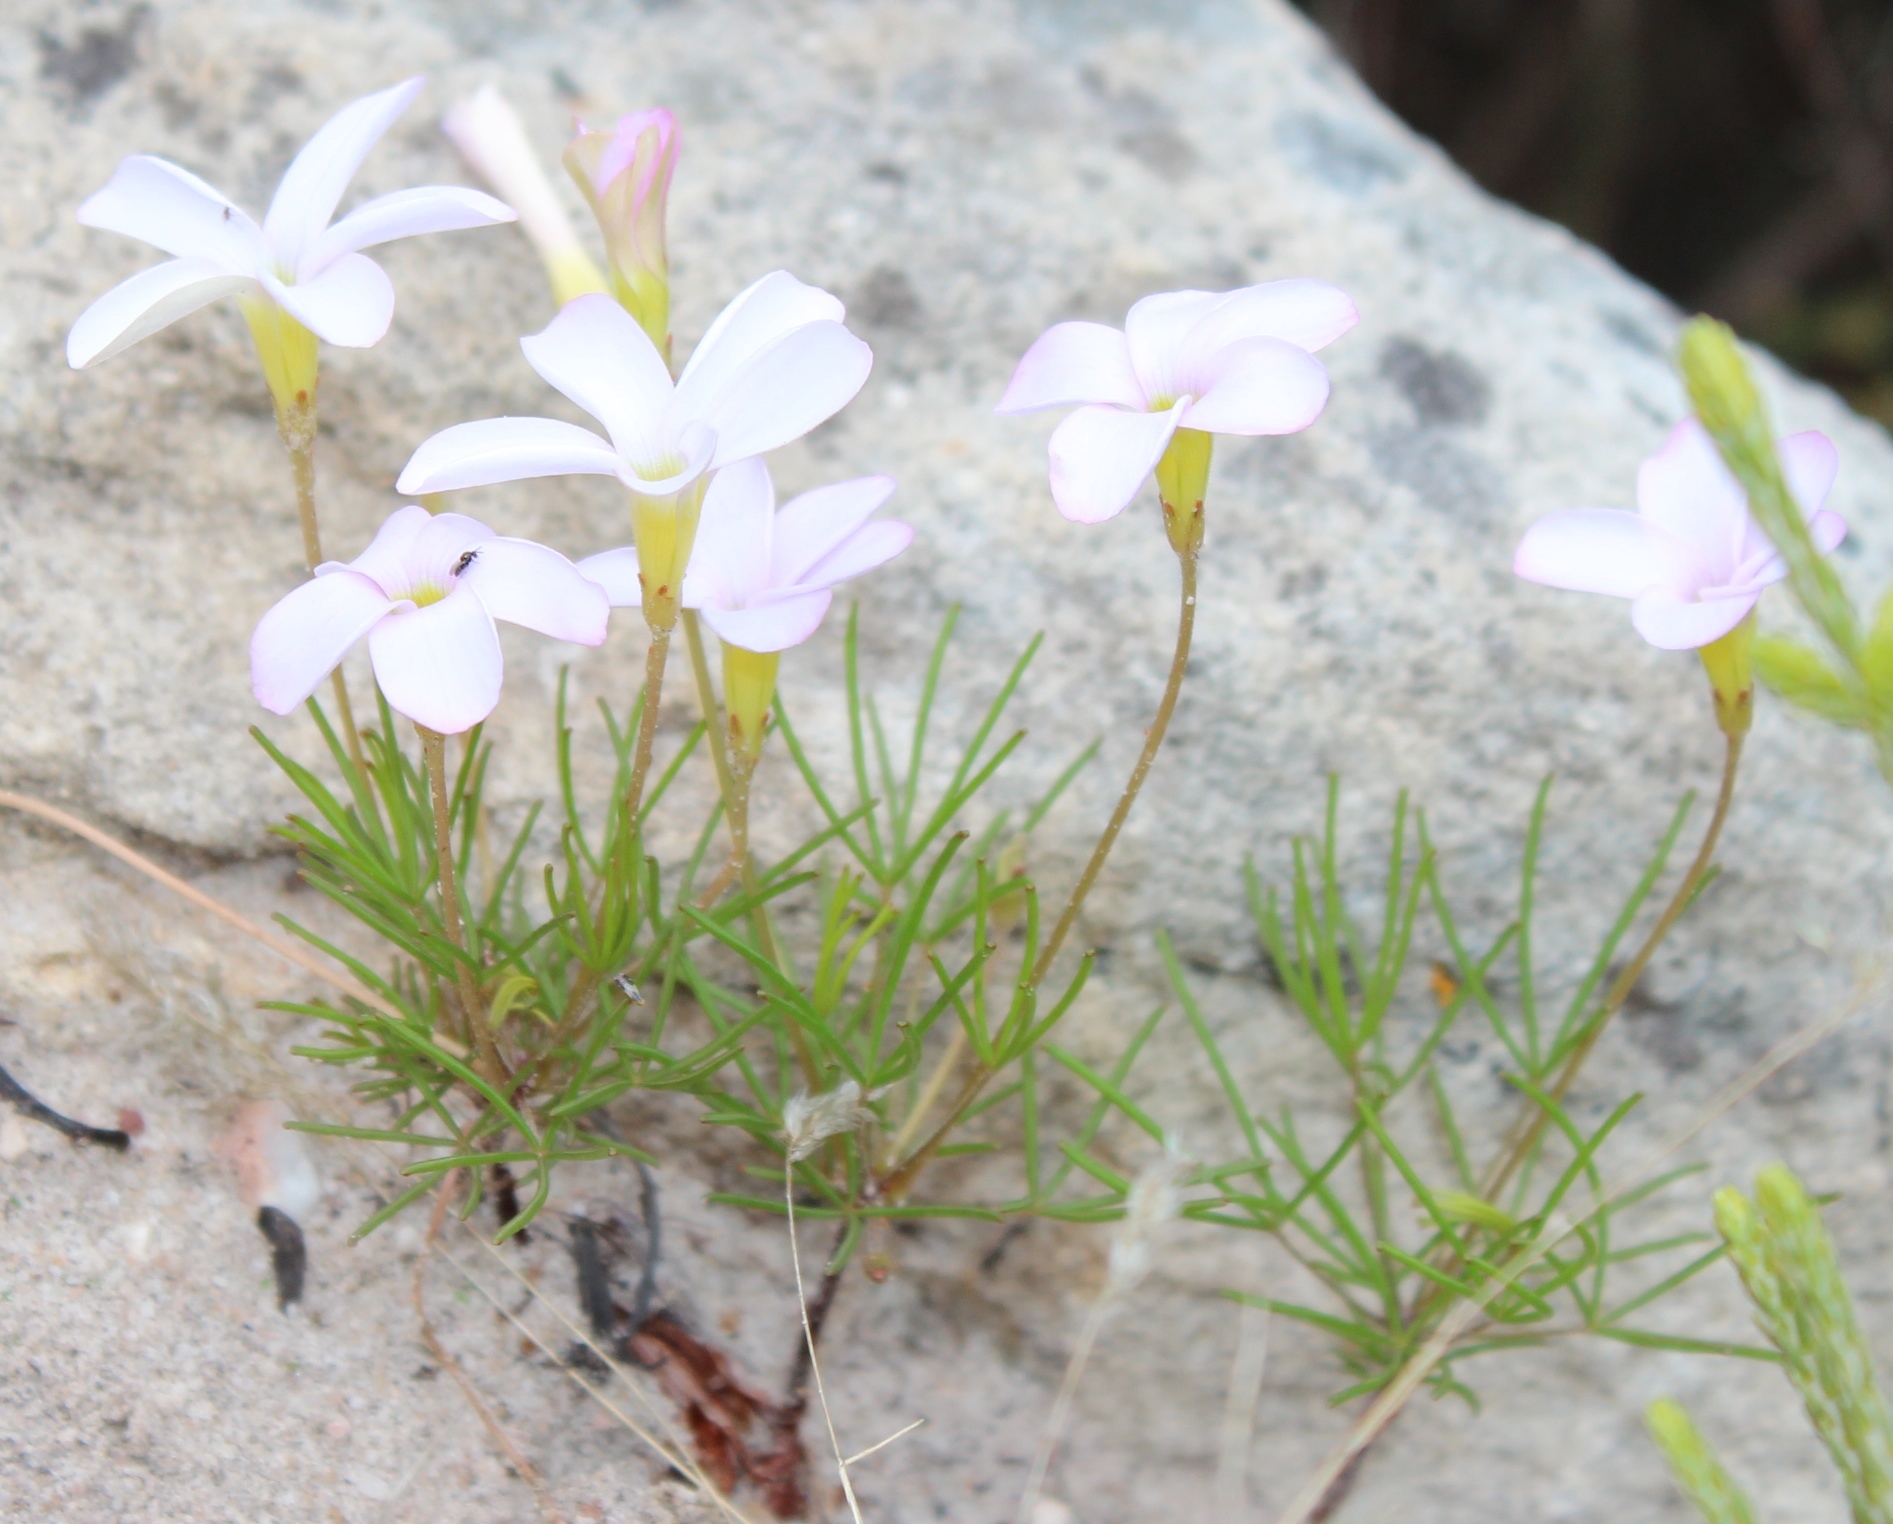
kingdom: Plantae
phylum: Tracheophyta
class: Magnoliopsida
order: Oxalidales
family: Oxalidaceae
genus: Oxalis
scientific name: Oxalis polyphylla
